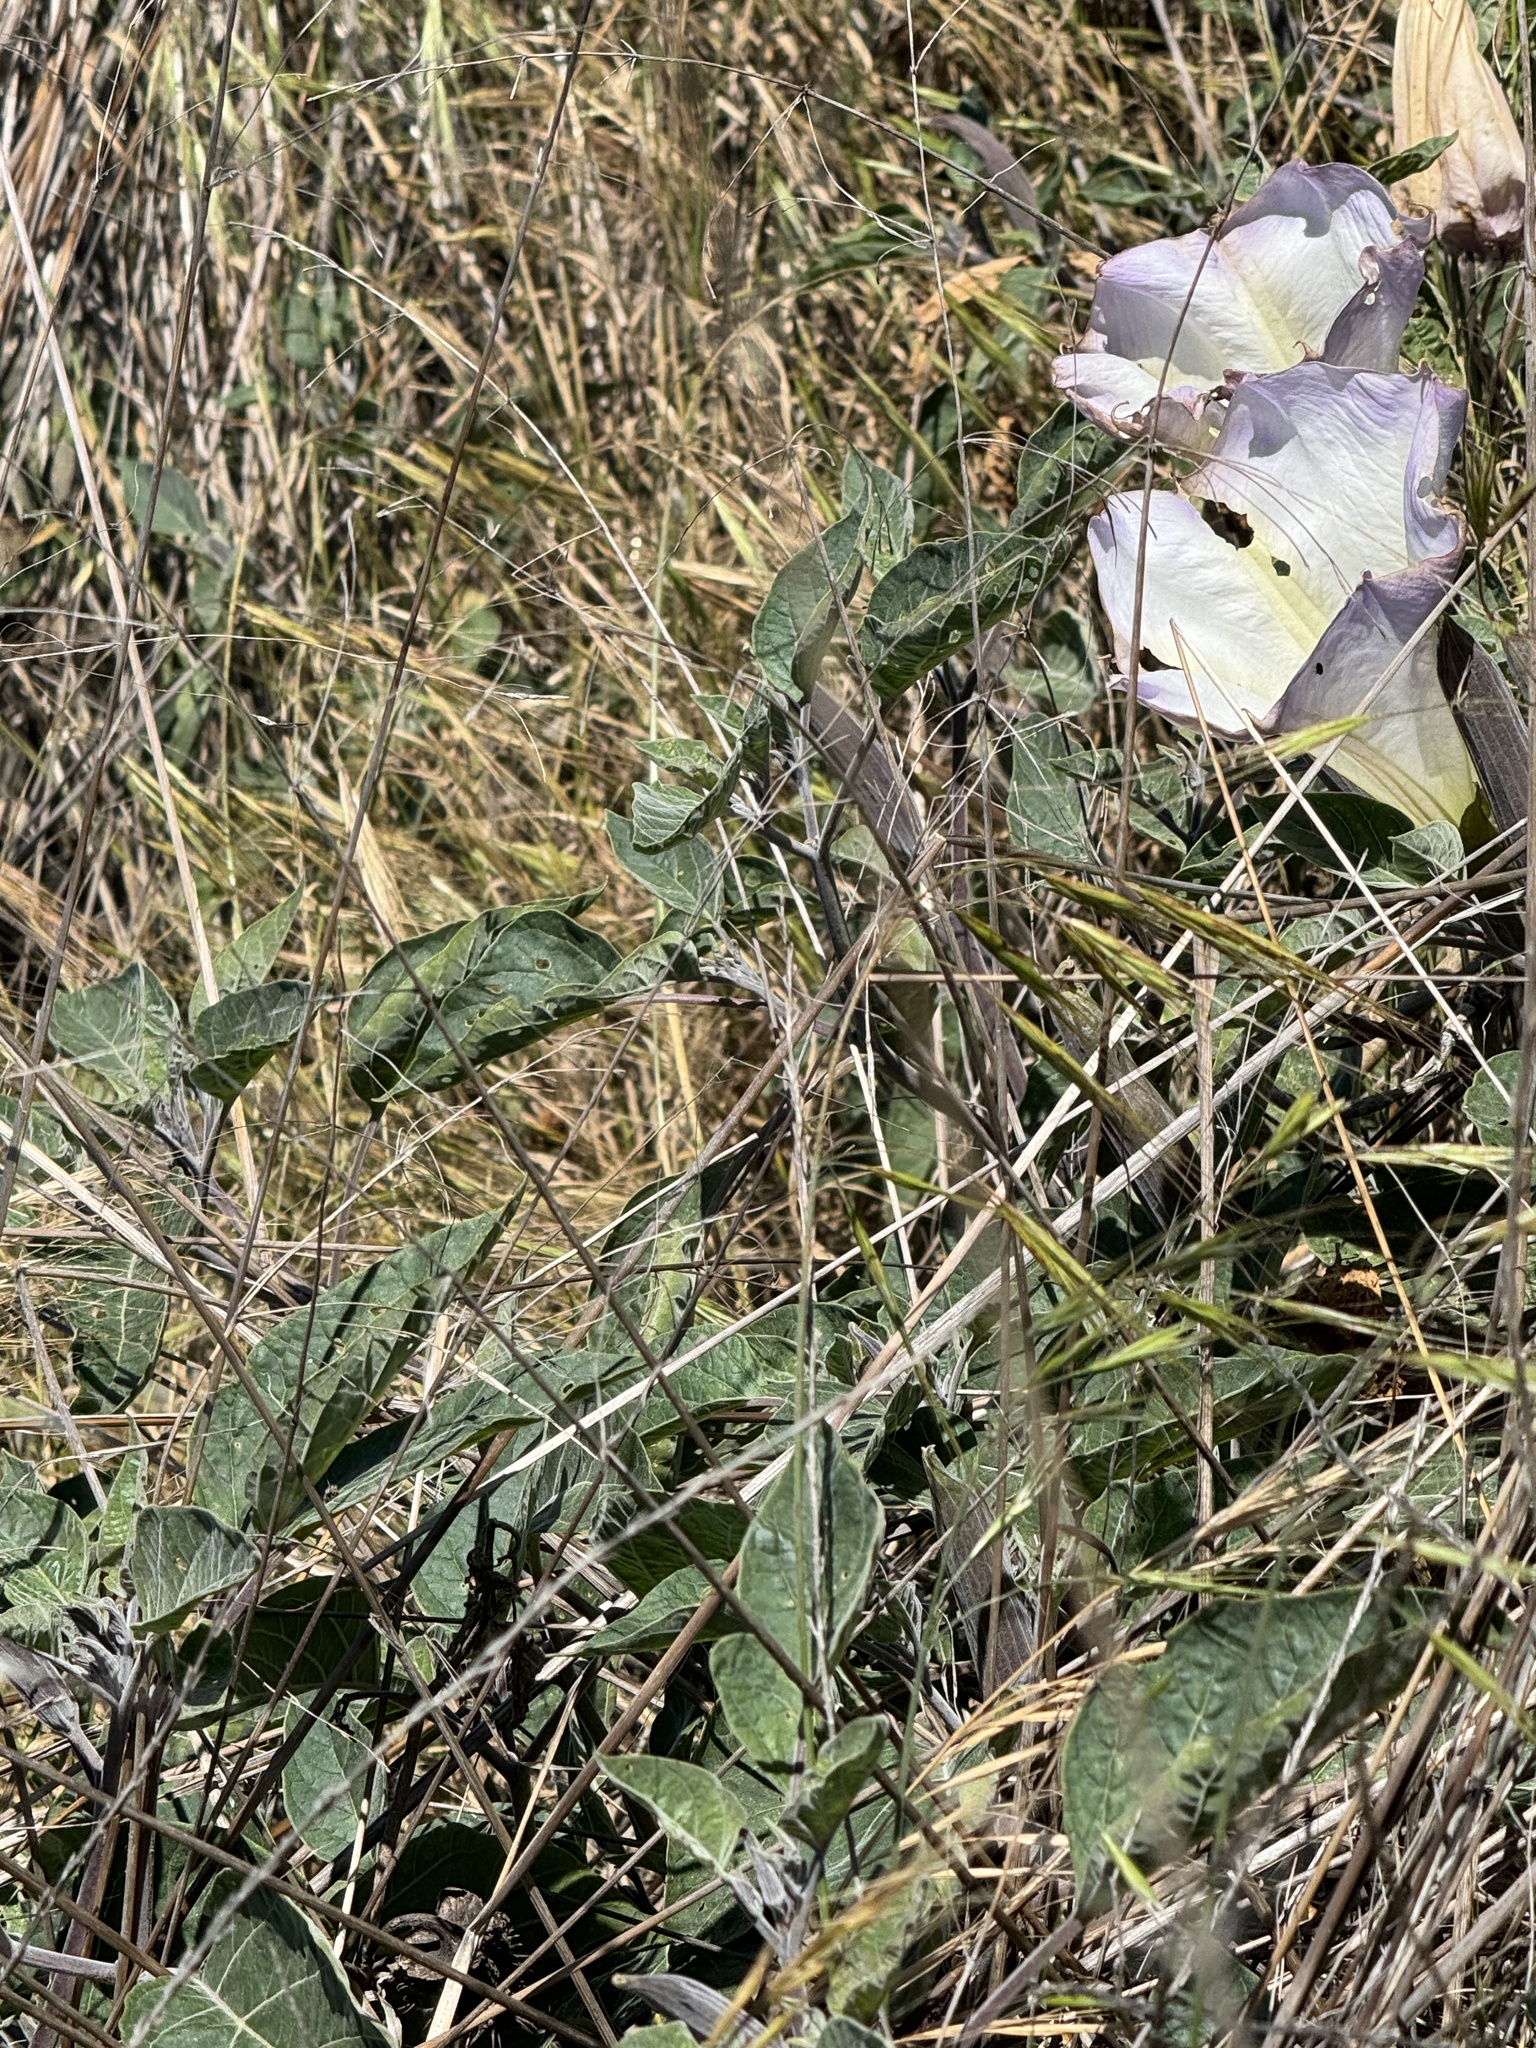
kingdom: Plantae
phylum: Tracheophyta
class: Magnoliopsida
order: Solanales
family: Solanaceae
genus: Datura
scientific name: Datura wrightii
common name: Sacred thorn-apple
